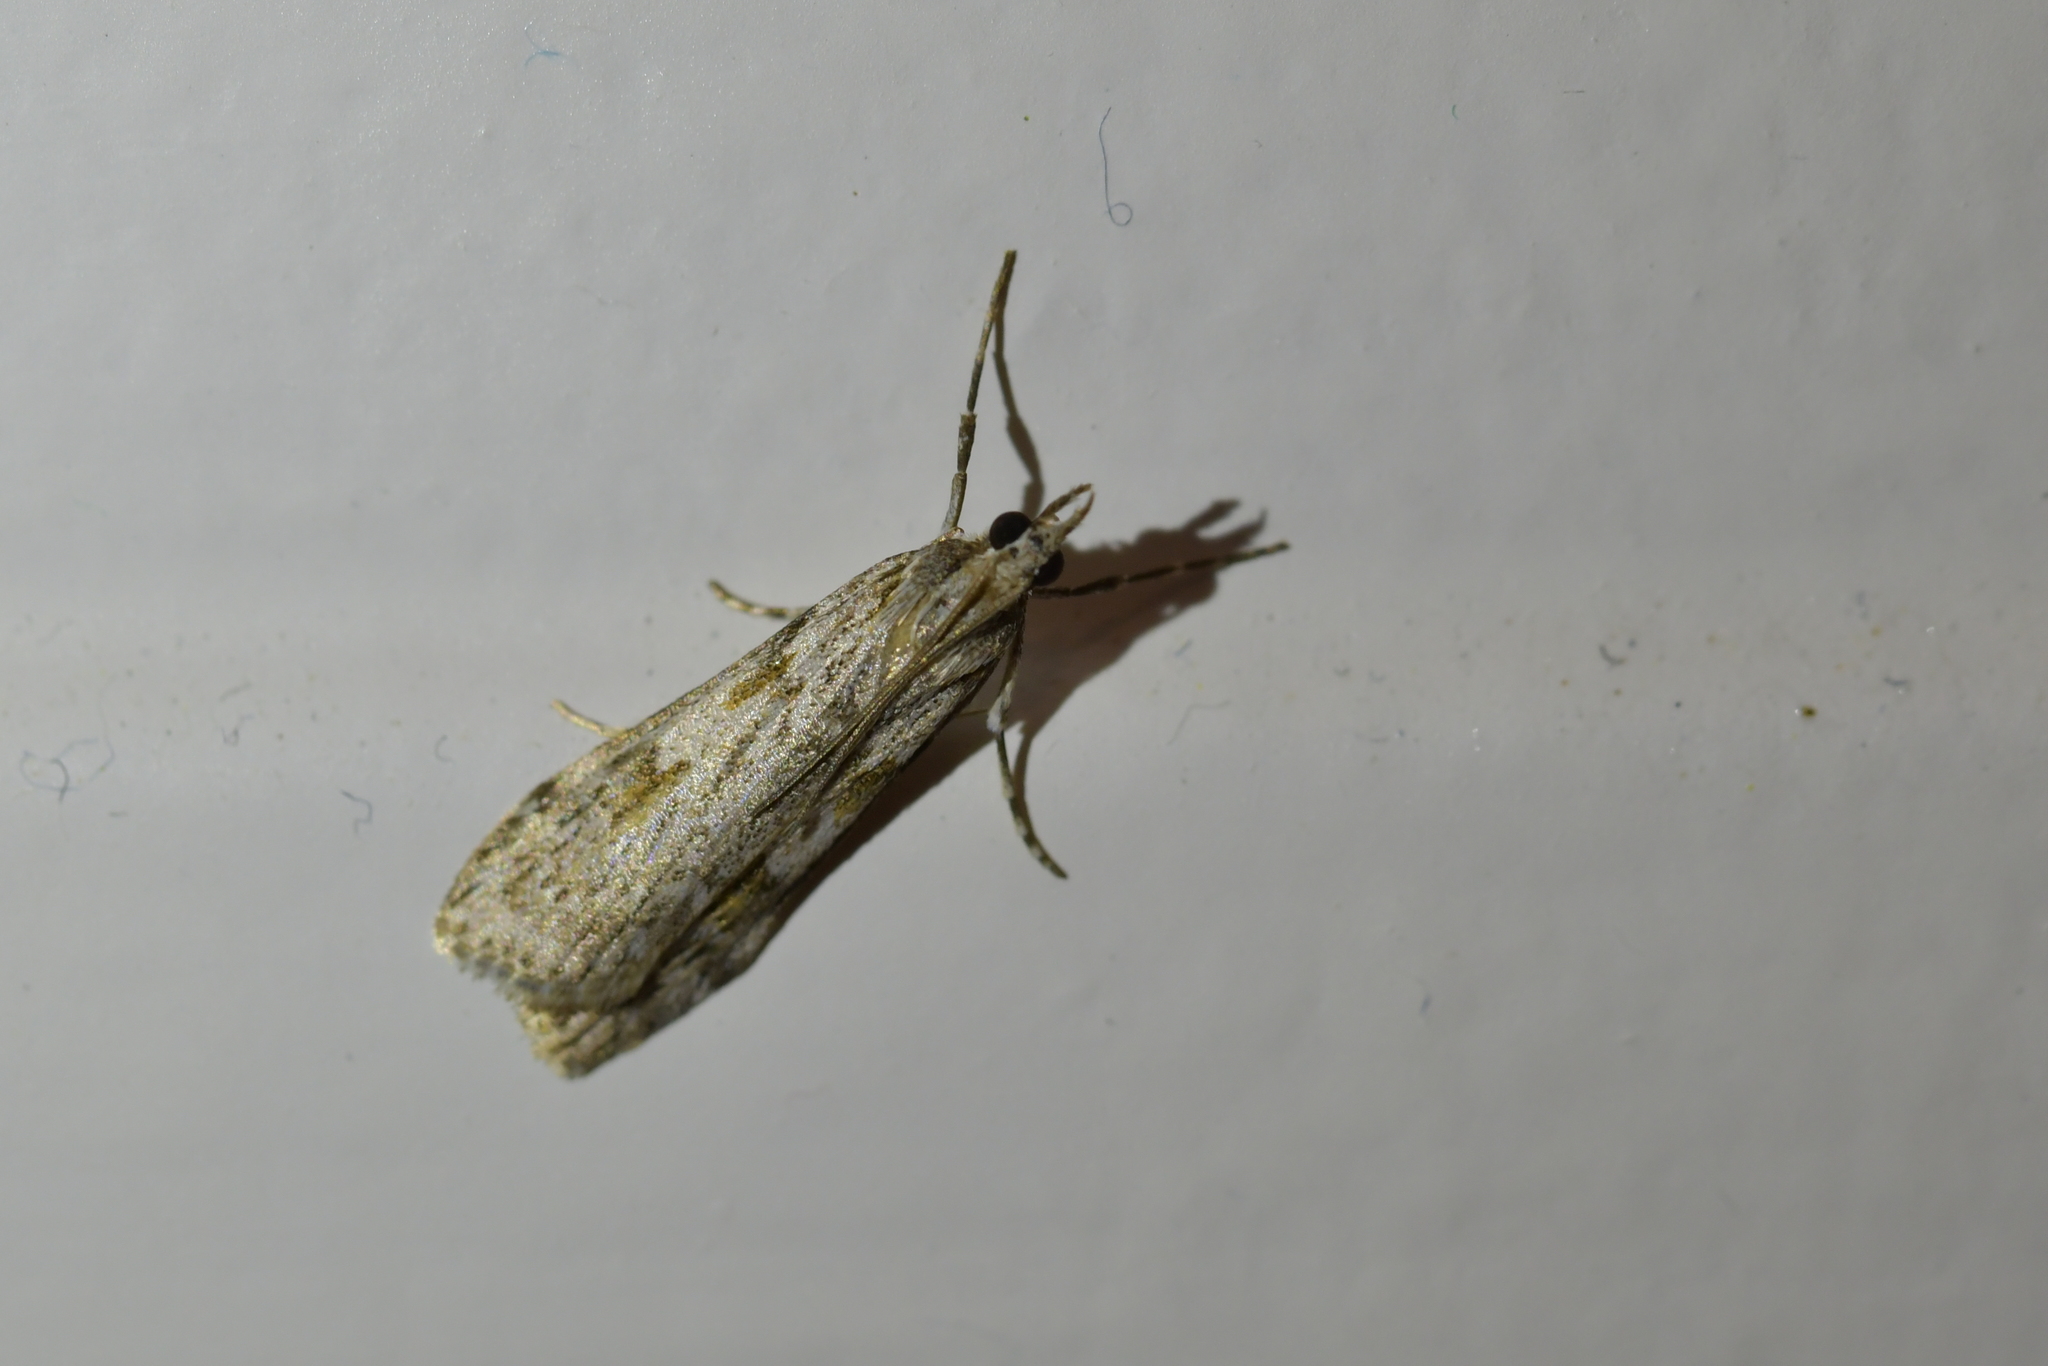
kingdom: Animalia
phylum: Arthropoda
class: Insecta
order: Lepidoptera
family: Crambidae
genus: Scoparia
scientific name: Scoparia halopis
